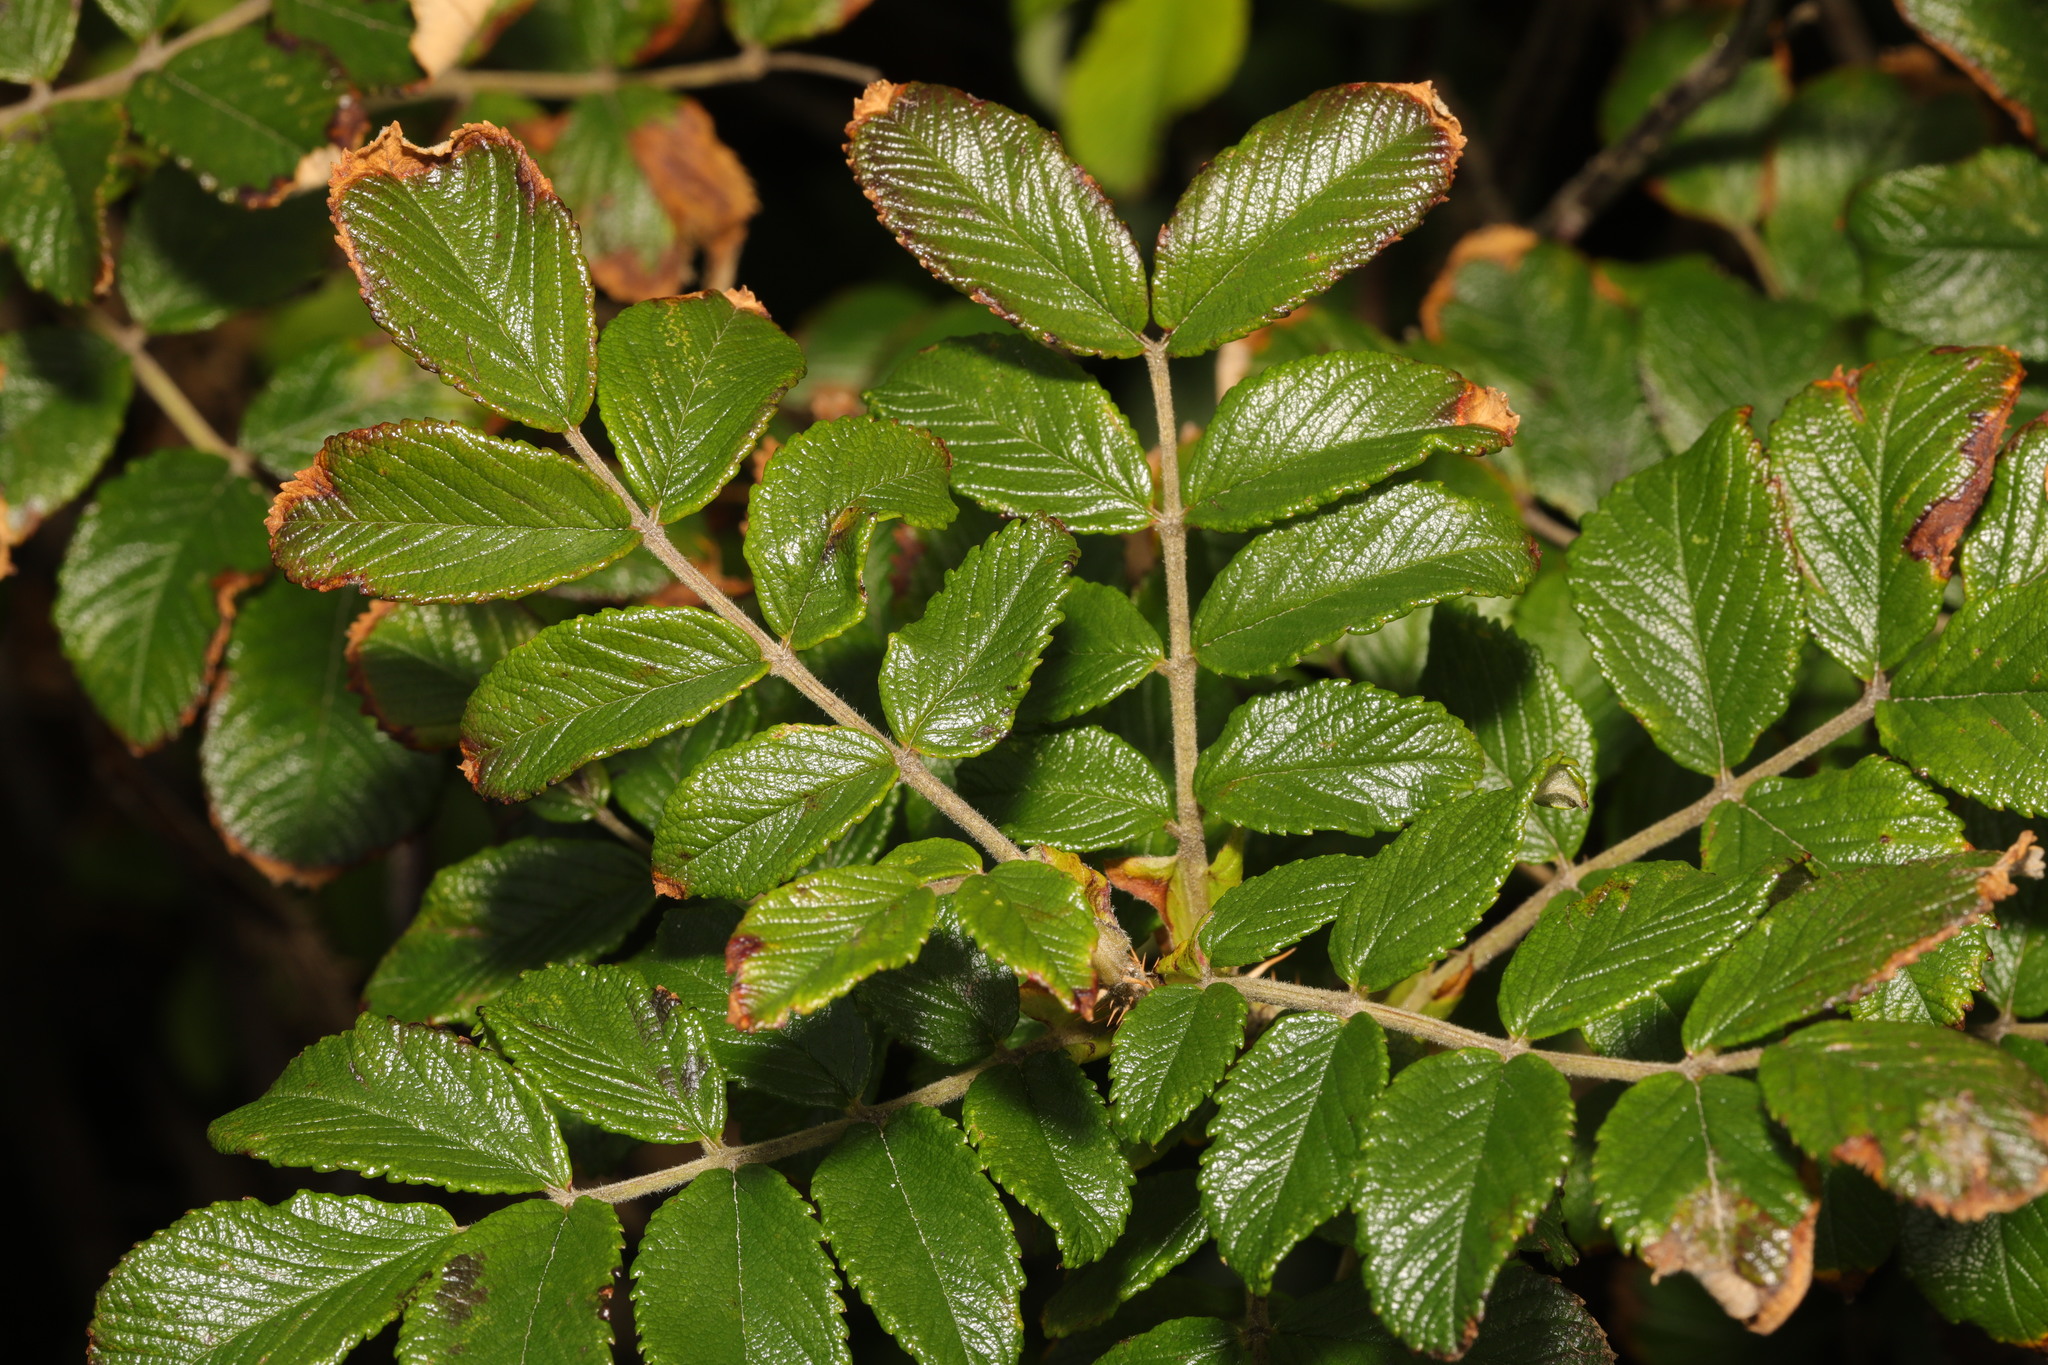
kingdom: Plantae
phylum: Tracheophyta
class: Magnoliopsida
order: Rosales
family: Rosaceae
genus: Rosa
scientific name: Rosa rugosa
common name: Japanese rose
